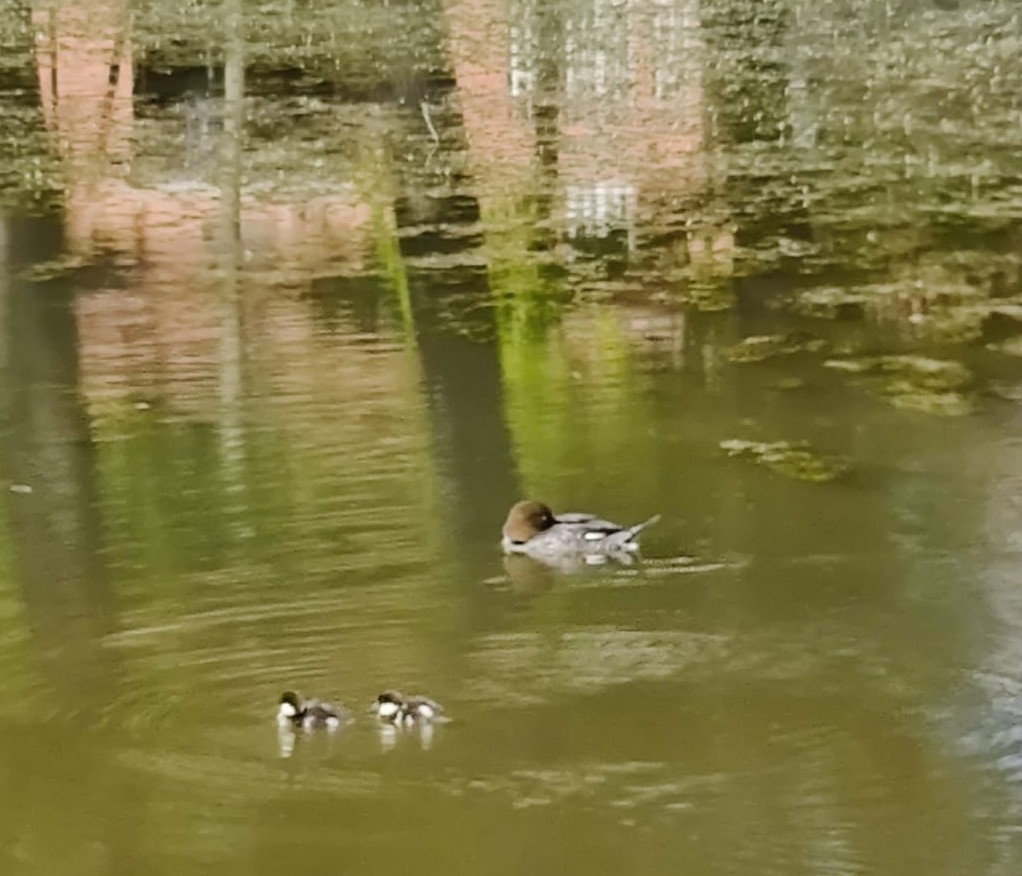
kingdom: Animalia
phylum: Chordata
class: Aves
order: Anseriformes
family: Anatidae
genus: Bucephala
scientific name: Bucephala clangula
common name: Common goldeneye
